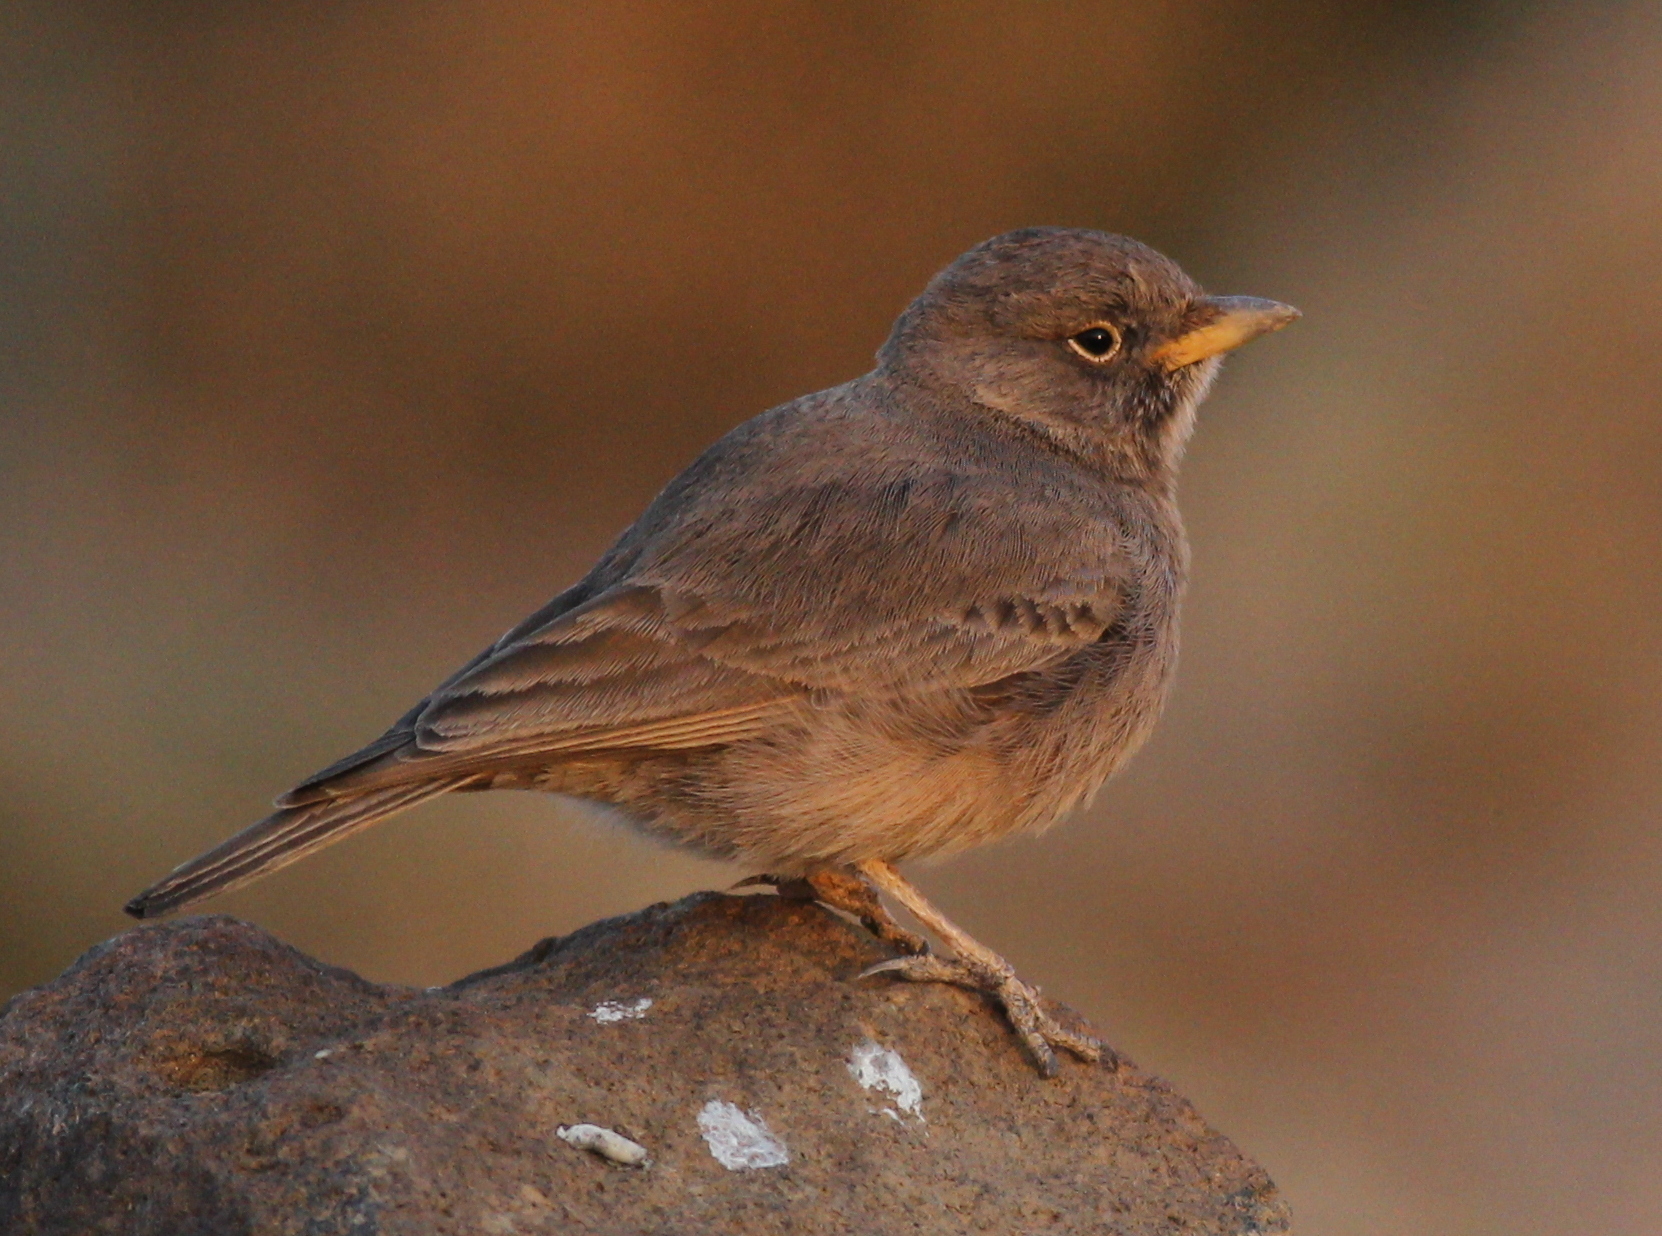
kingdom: Animalia
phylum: Chordata
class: Aves
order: Passeriformes
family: Alaudidae
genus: Ammomanes
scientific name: Ammomanes deserti
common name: Desert lark
